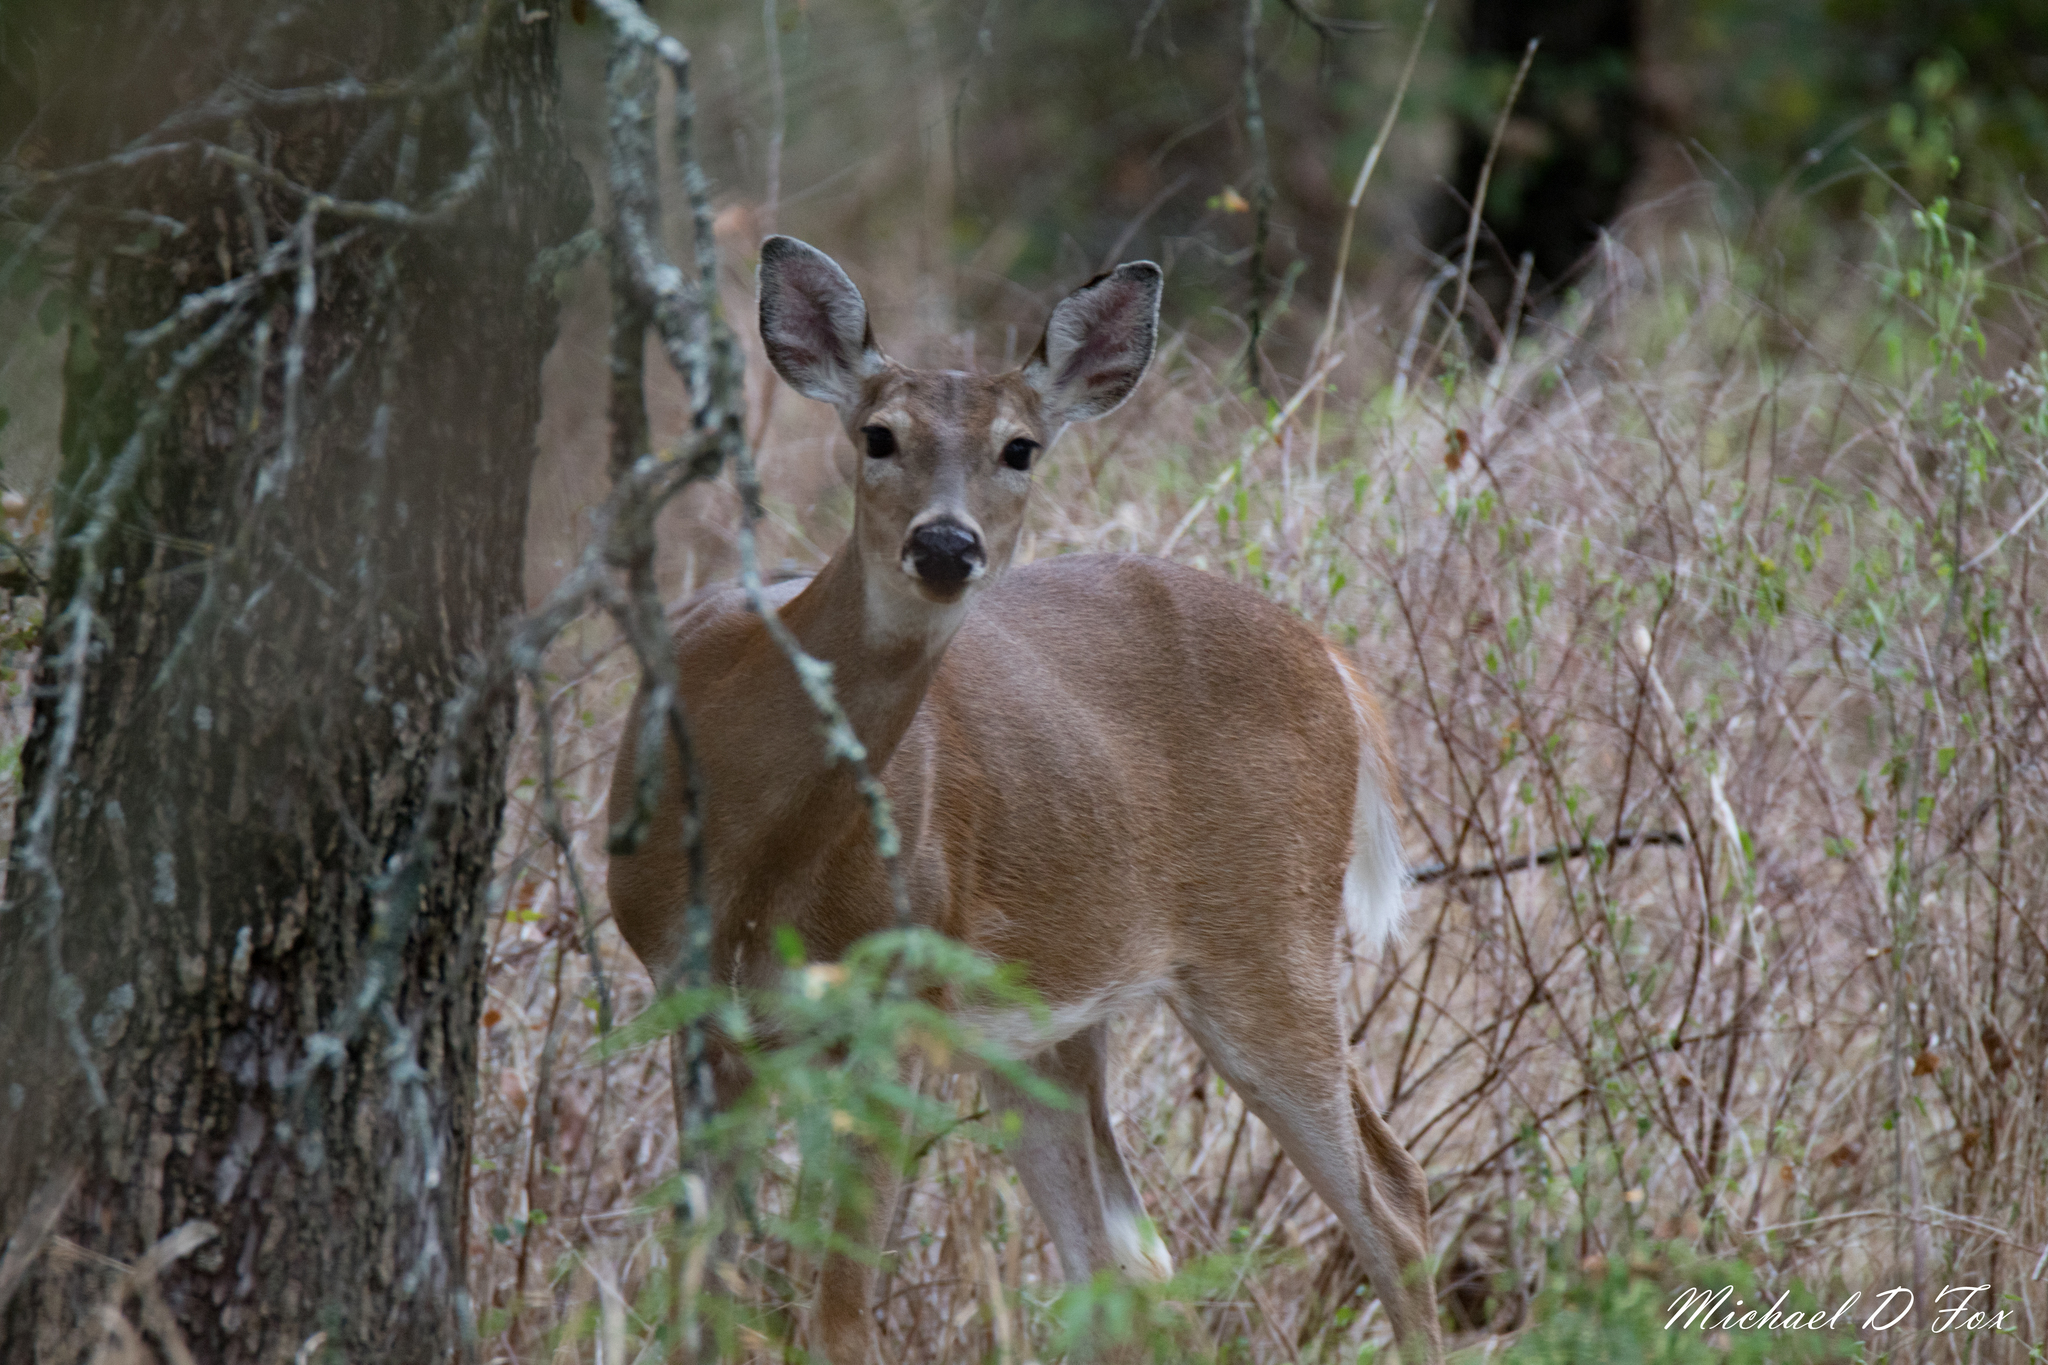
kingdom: Animalia
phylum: Chordata
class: Mammalia
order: Artiodactyla
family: Cervidae
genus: Odocoileus
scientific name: Odocoileus virginianus
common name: White-tailed deer
